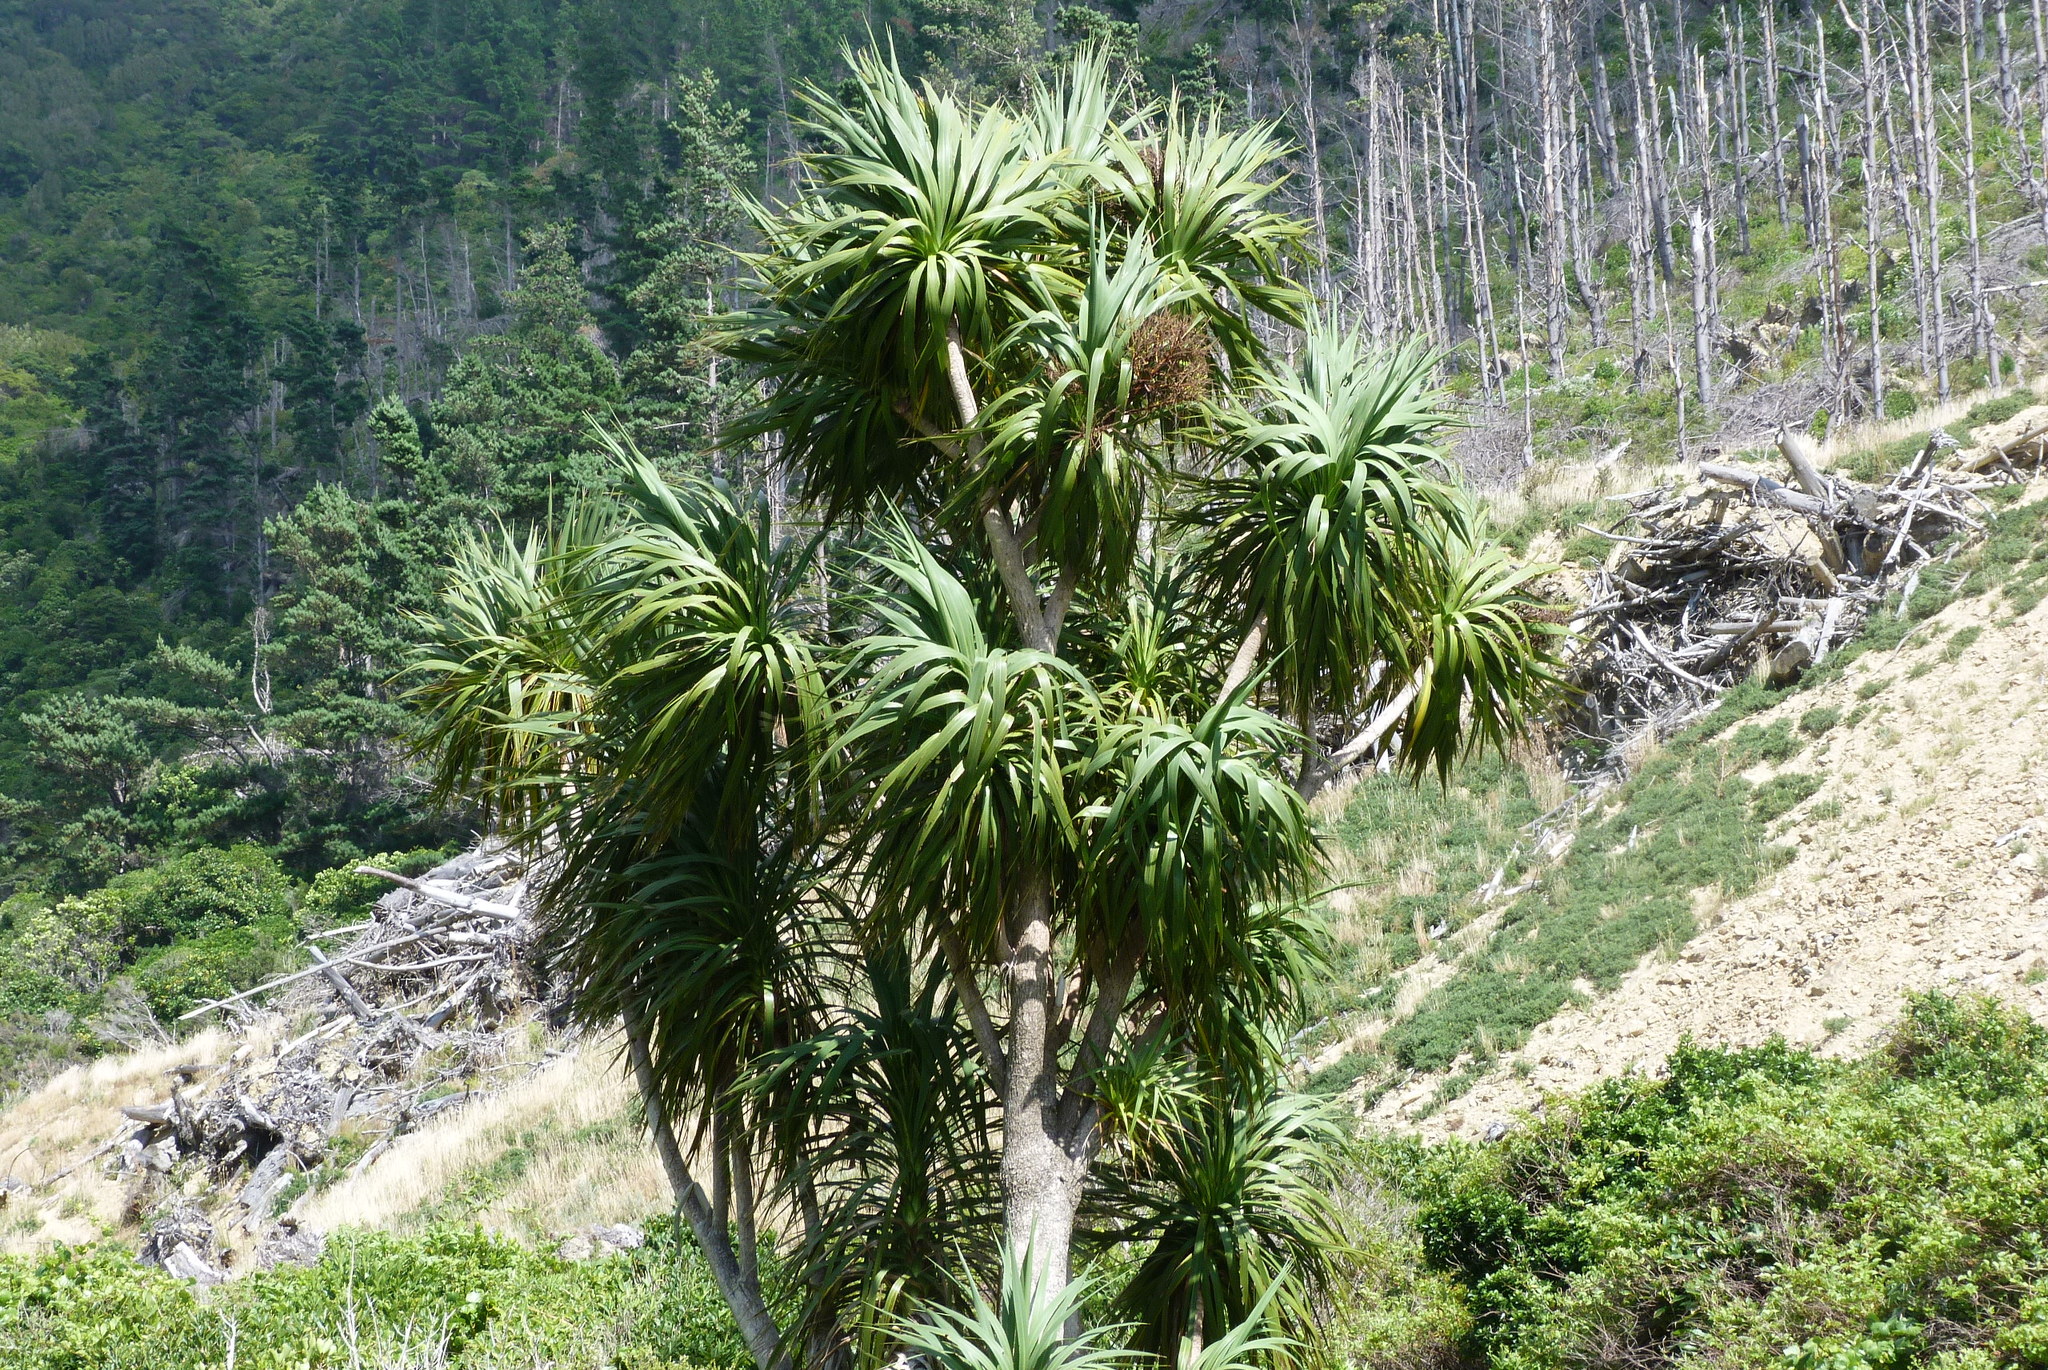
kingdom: Plantae
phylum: Tracheophyta
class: Liliopsida
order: Asparagales
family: Asparagaceae
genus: Cordyline
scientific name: Cordyline australis
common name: Cabbage-palm
